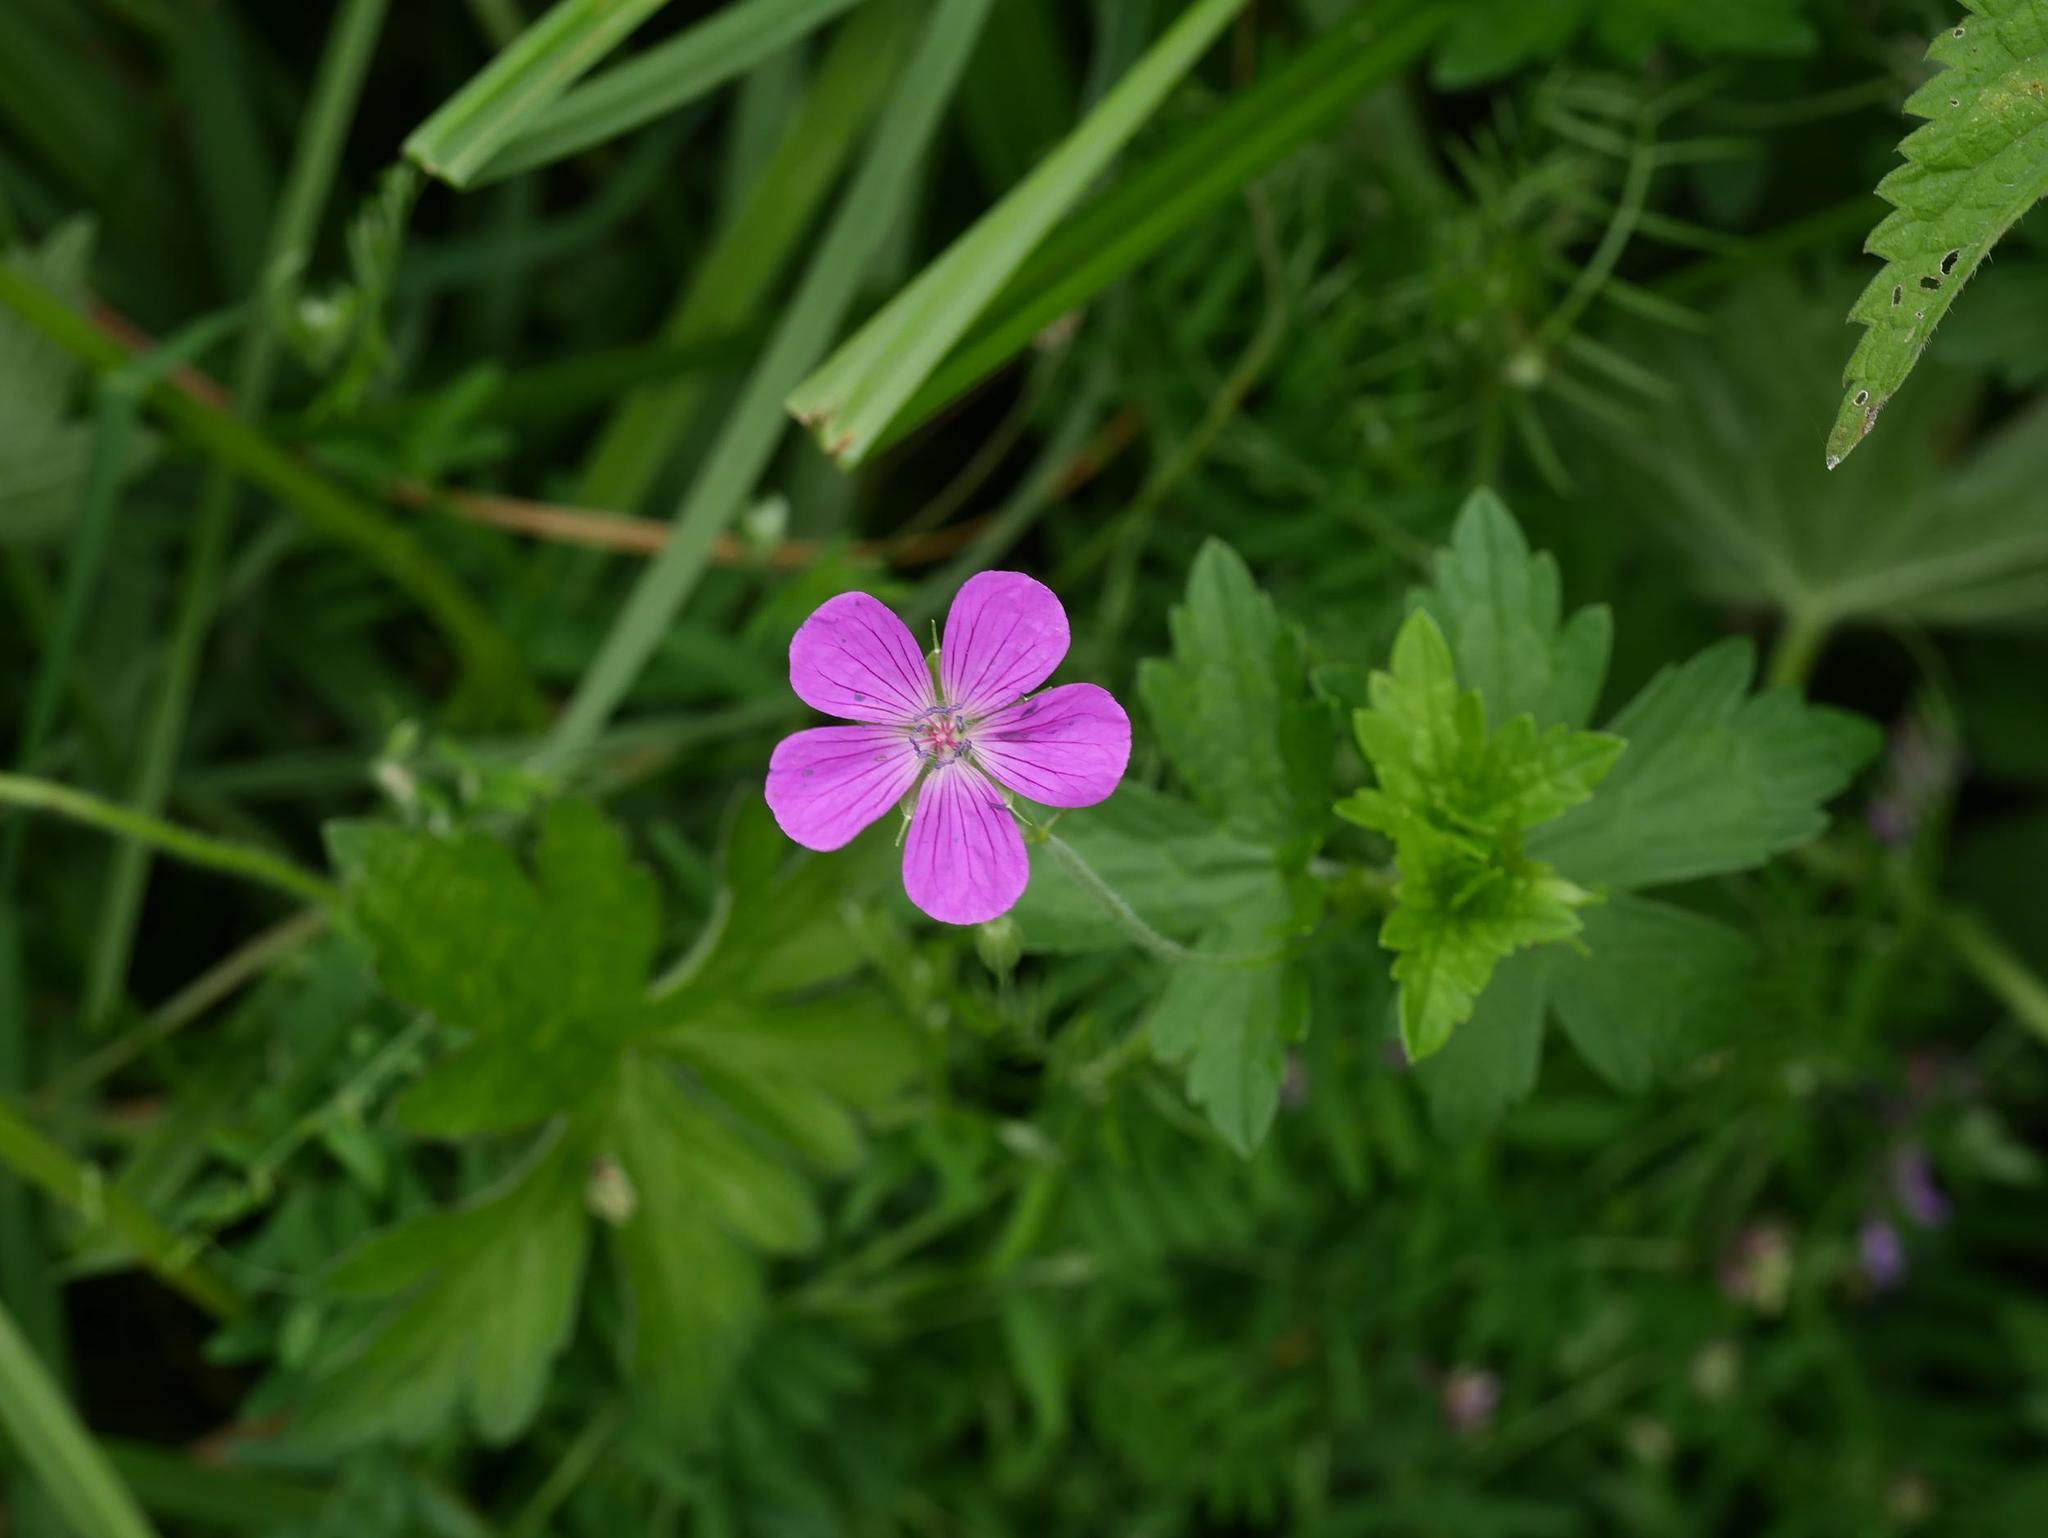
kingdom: Plantae
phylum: Tracheophyta
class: Magnoliopsida
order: Geraniales
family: Geraniaceae
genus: Geranium
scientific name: Geranium palustre
